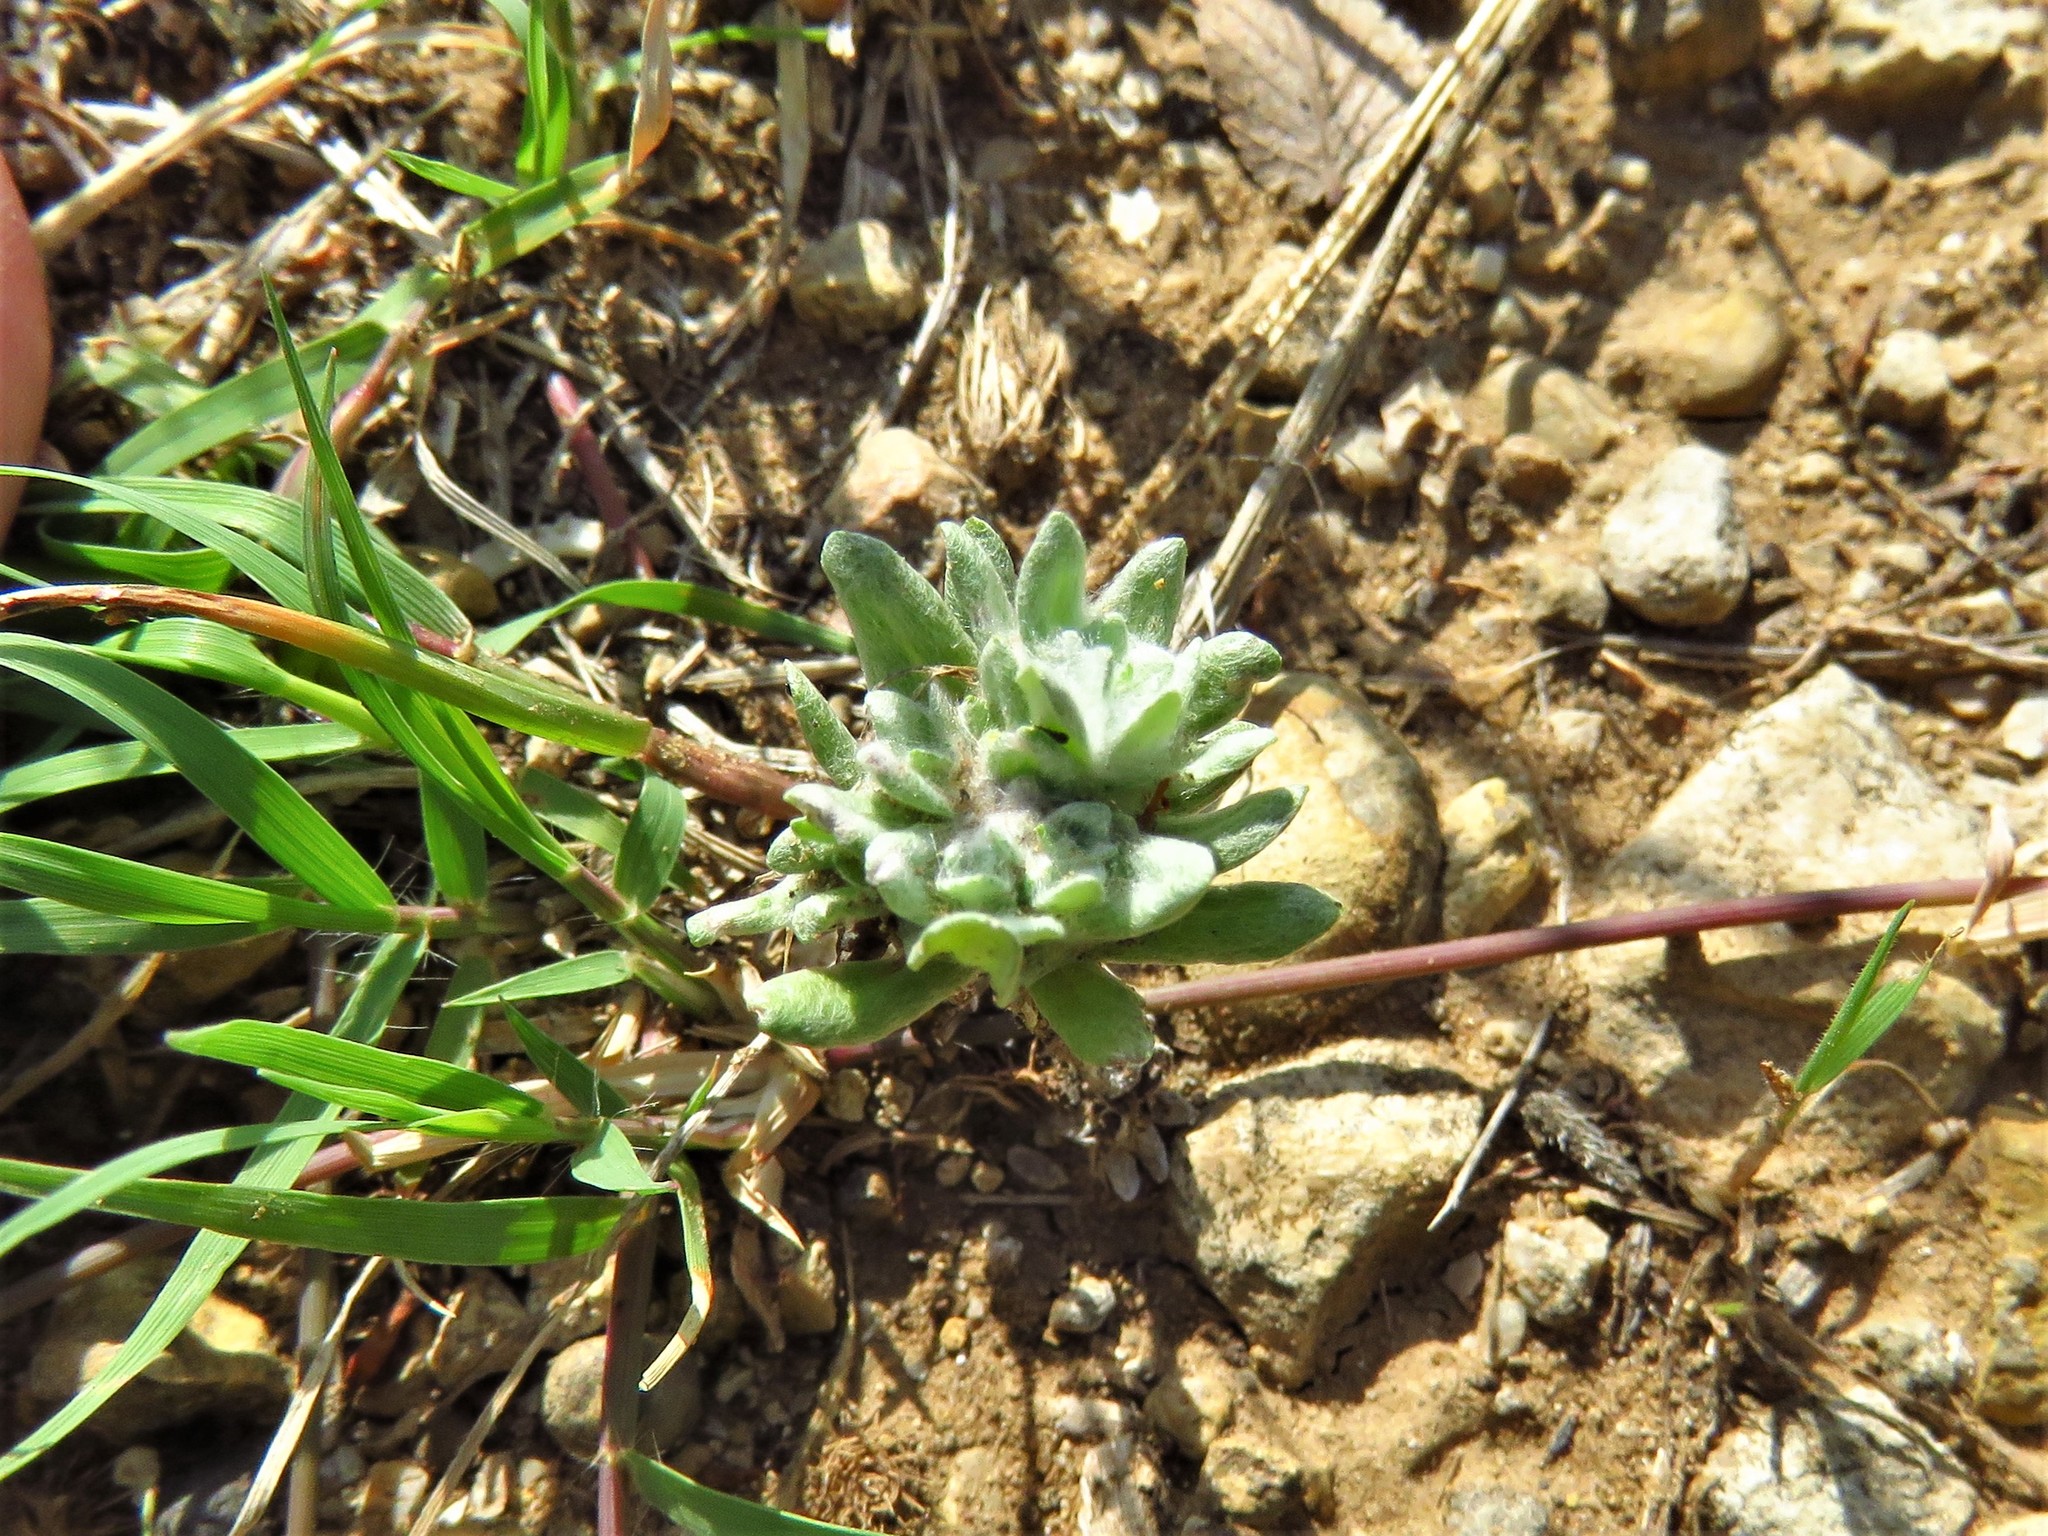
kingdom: Plantae
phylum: Tracheophyta
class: Magnoliopsida
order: Asterales
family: Asteraceae
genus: Diaperia
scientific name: Diaperia prolifera
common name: Big-head rabbit-tobacco
